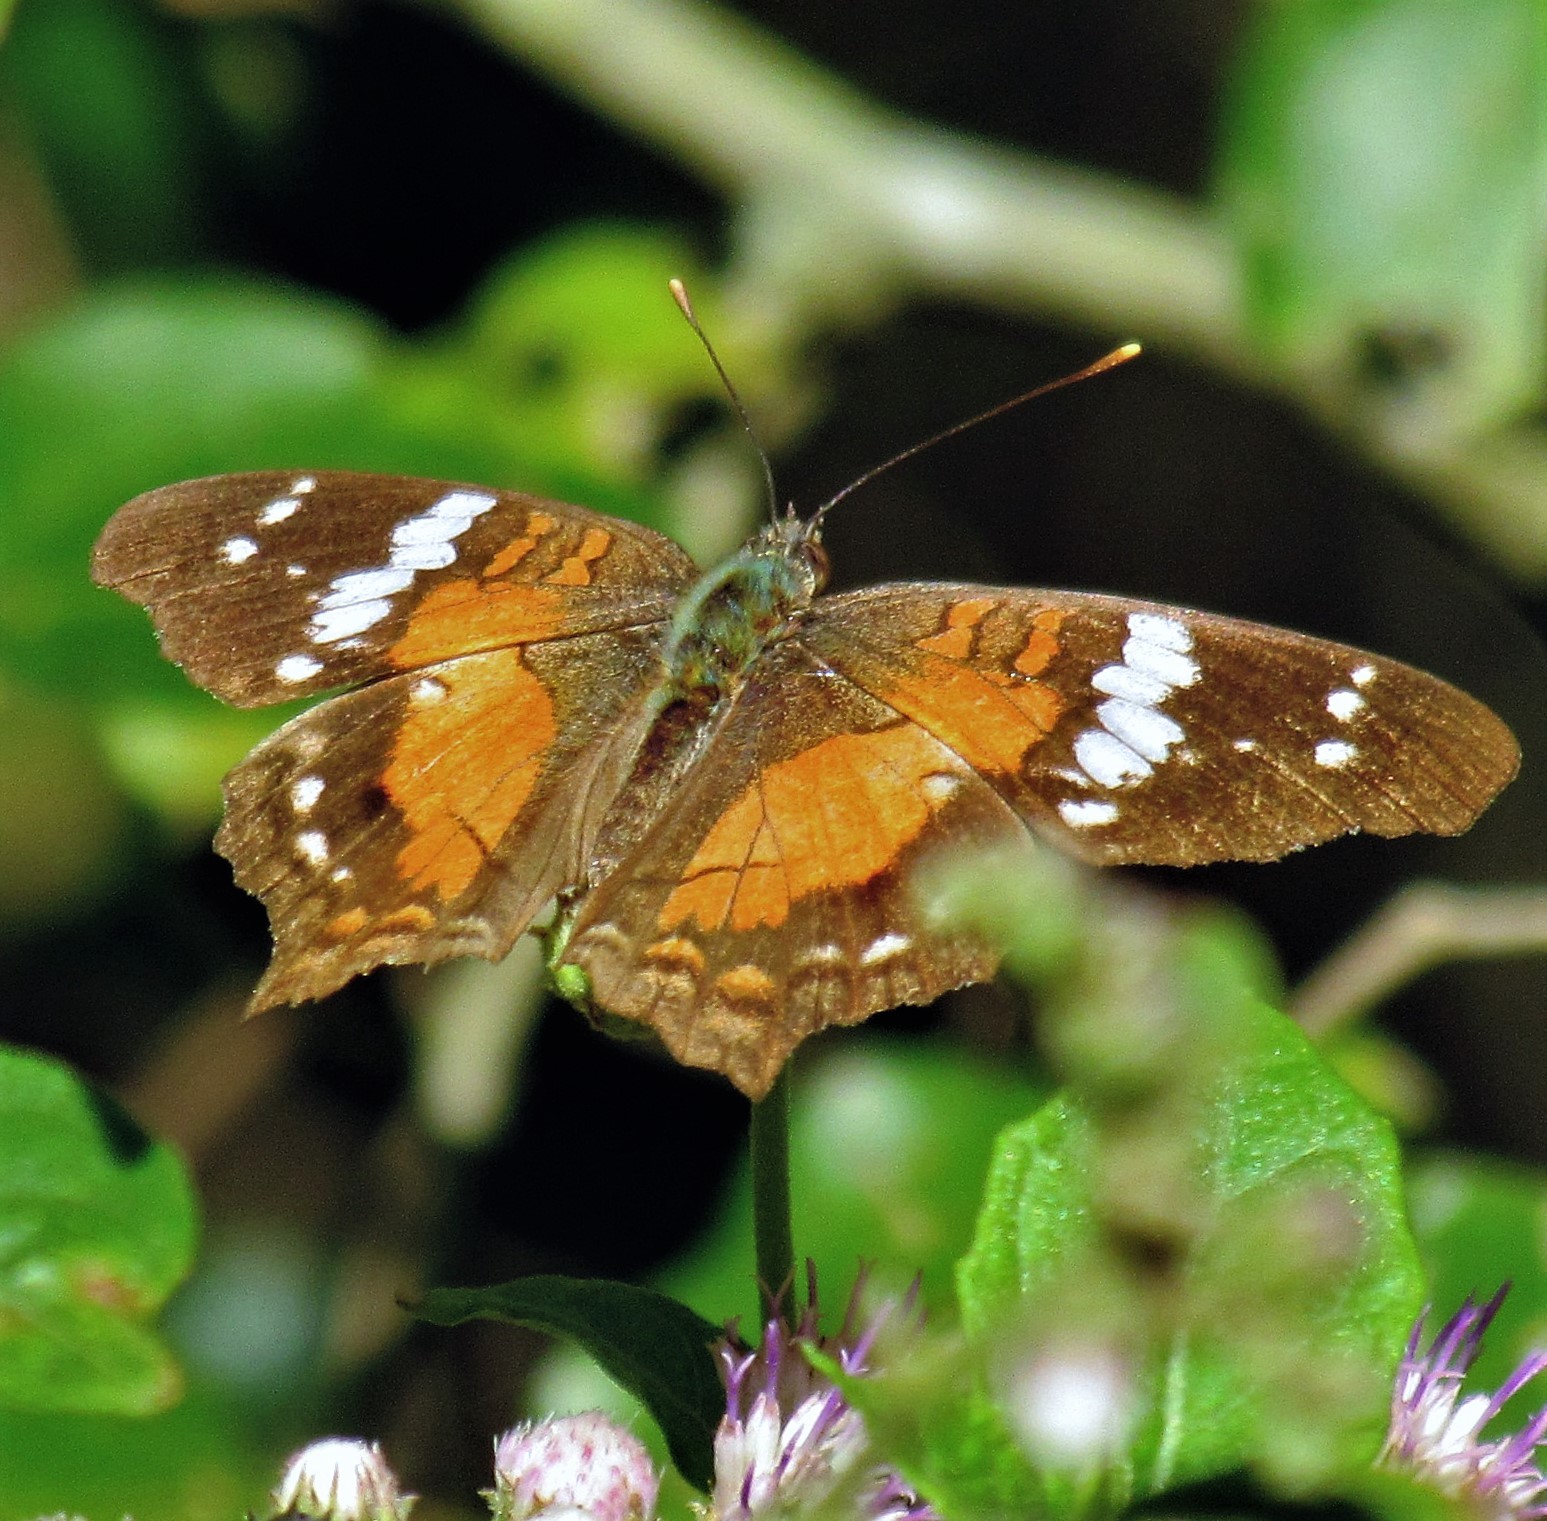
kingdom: Animalia
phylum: Arthropoda
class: Insecta
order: Lepidoptera
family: Nymphalidae
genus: Anartia
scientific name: Anartia amathea
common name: Red peacock
